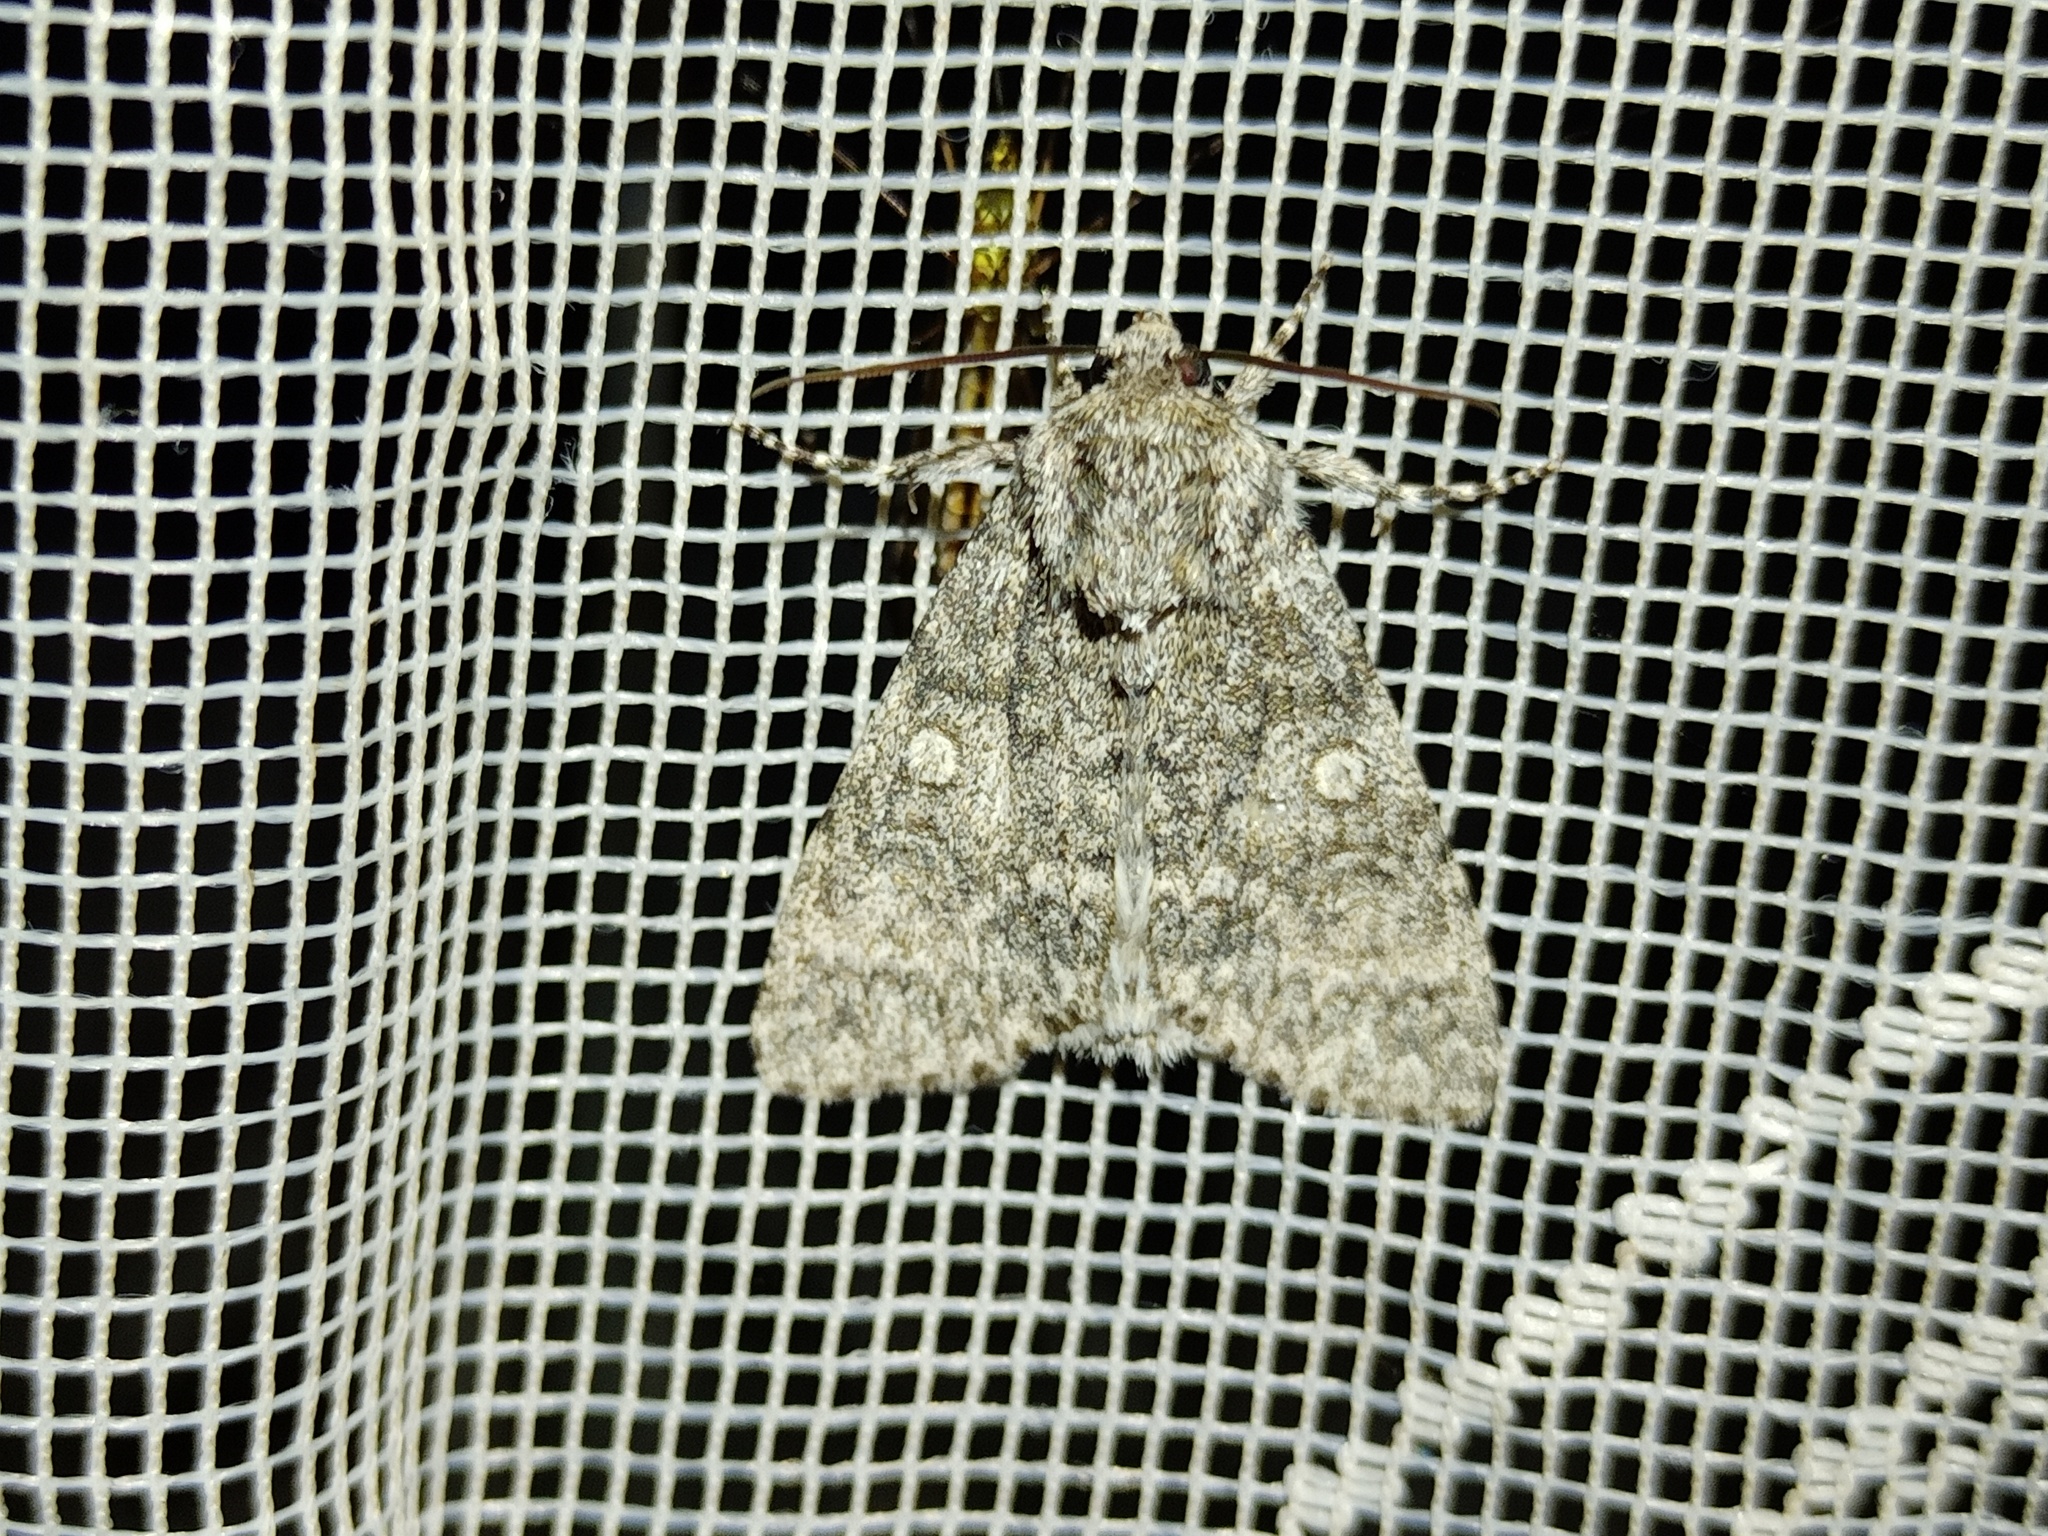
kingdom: Animalia
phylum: Arthropoda
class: Insecta
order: Lepidoptera
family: Noctuidae
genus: Acronicta
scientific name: Acronicta megacephala
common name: Poplar grey
